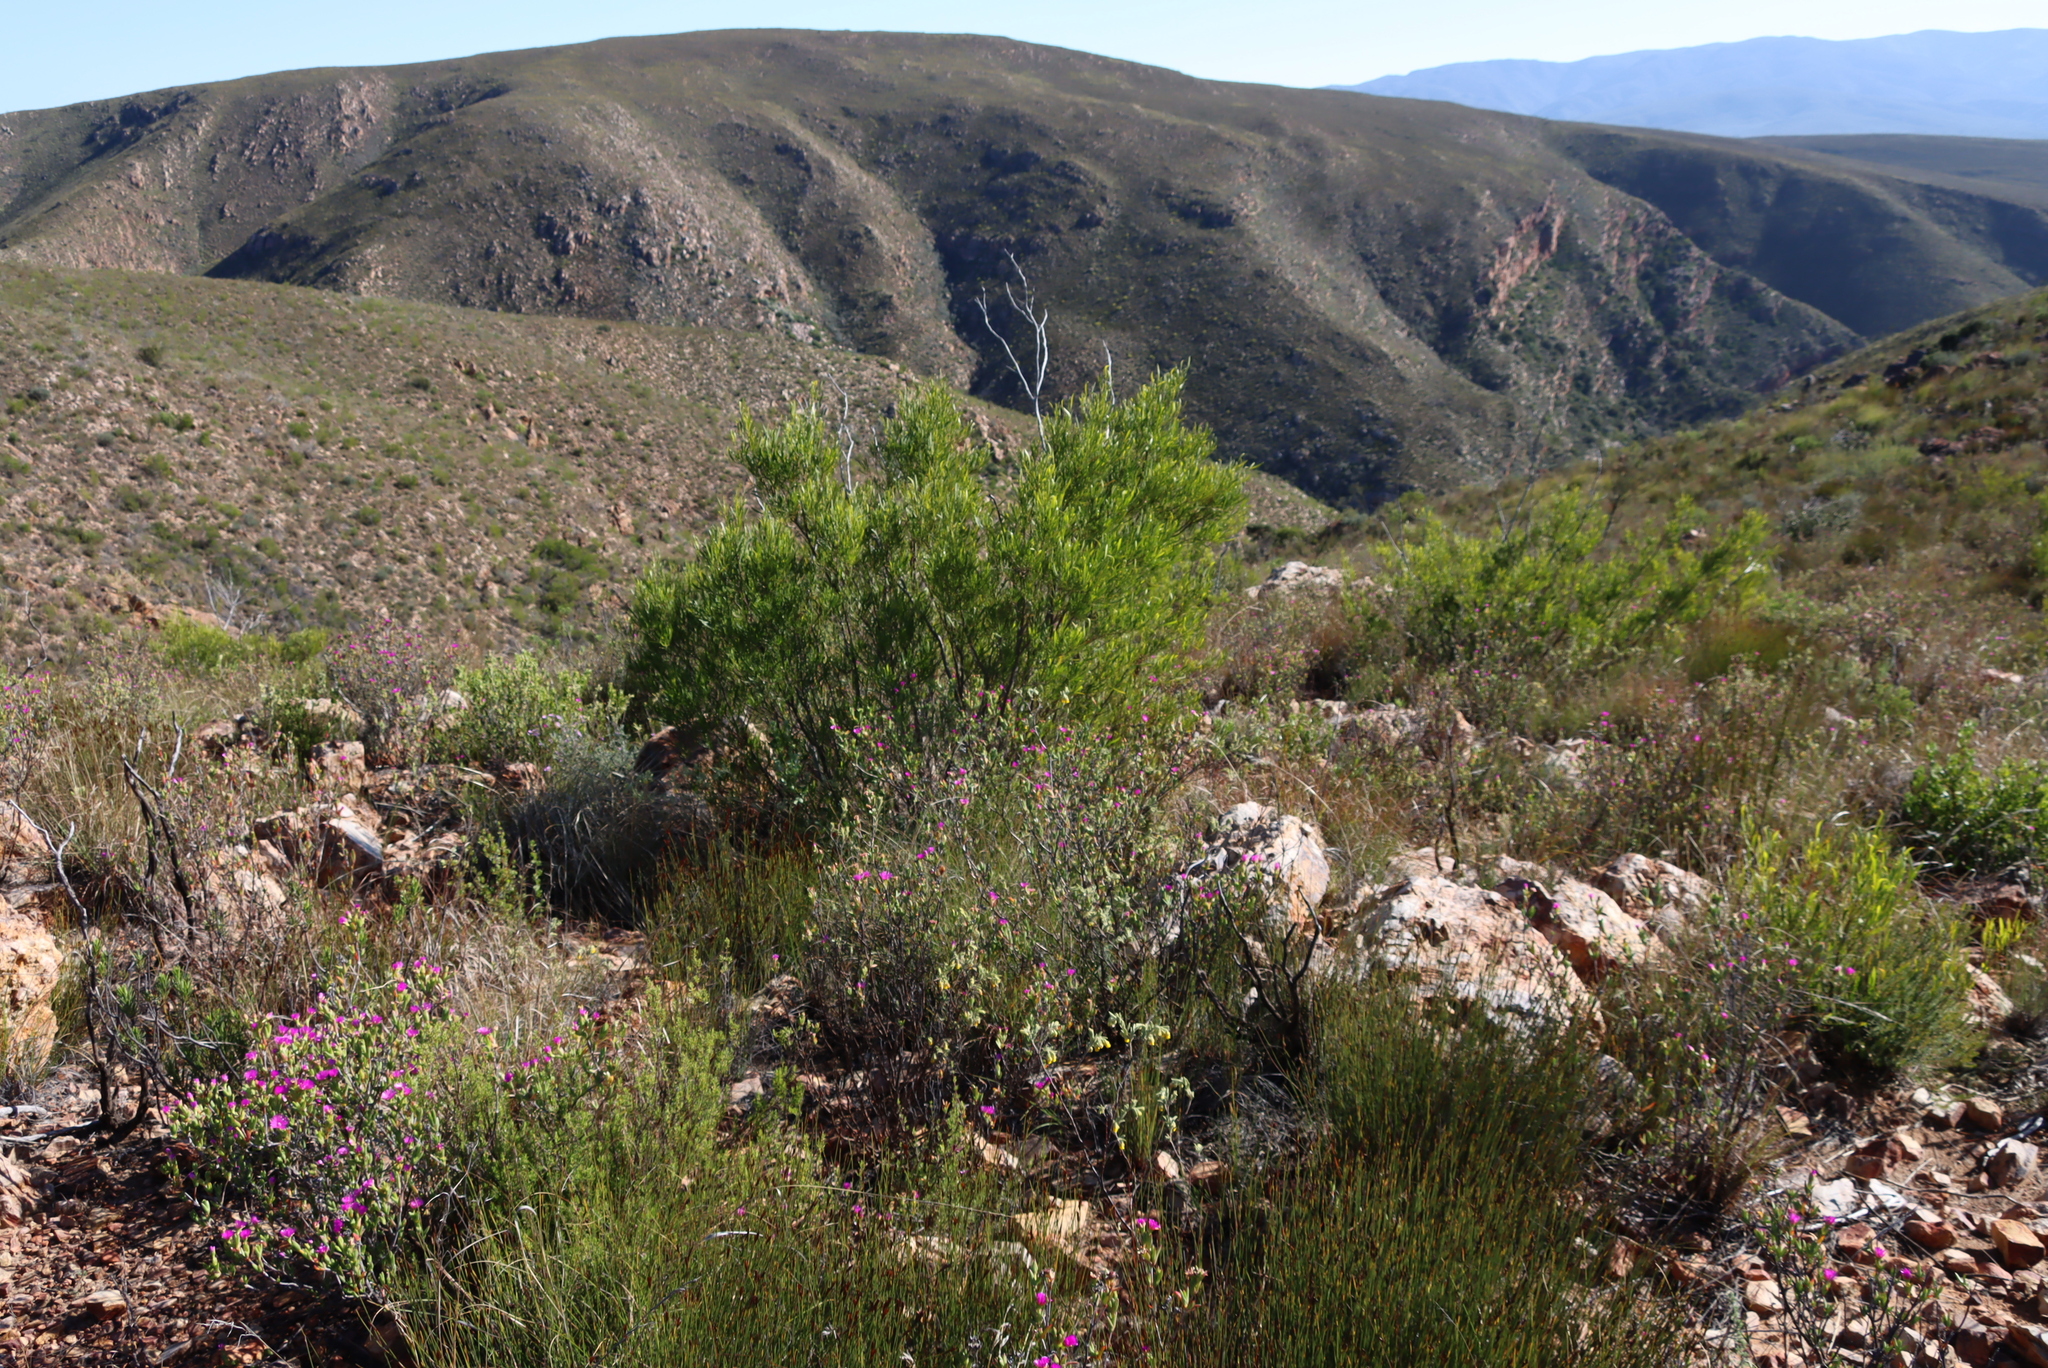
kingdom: Plantae
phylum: Tracheophyta
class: Magnoliopsida
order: Sapindales
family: Sapindaceae
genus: Dodonaea
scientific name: Dodonaea viscosa
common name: Hopbush
